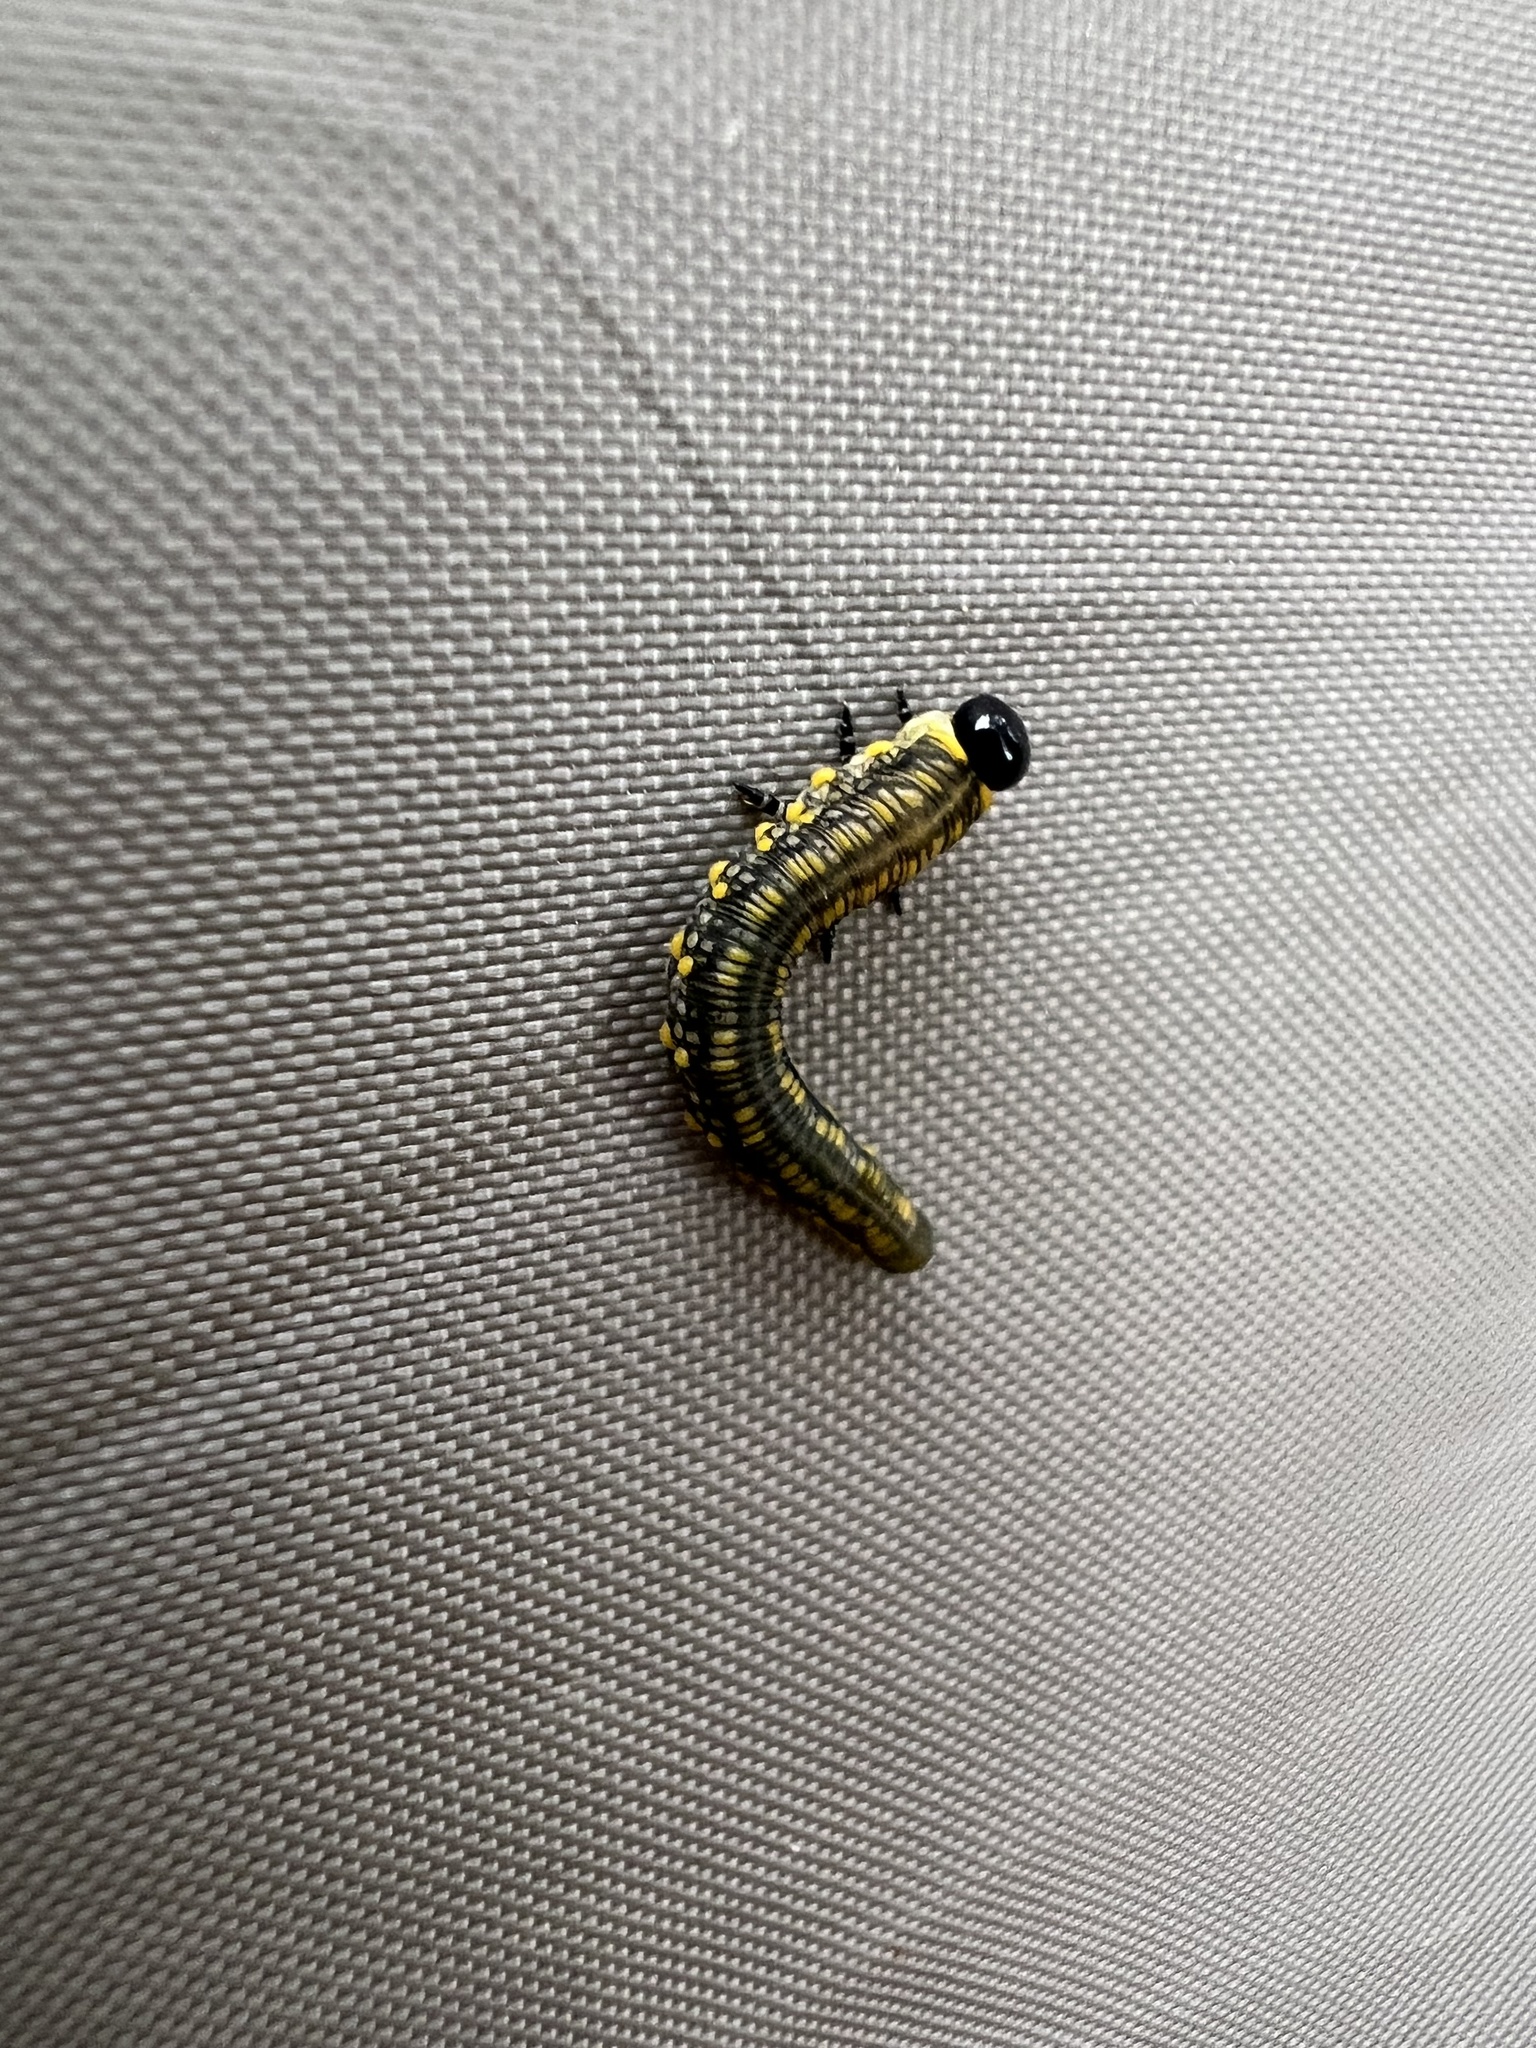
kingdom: Animalia
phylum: Arthropoda
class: Insecta
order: Hymenoptera
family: Diprionidae
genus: Diprion
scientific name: Diprion similis
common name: Pine sawfly
